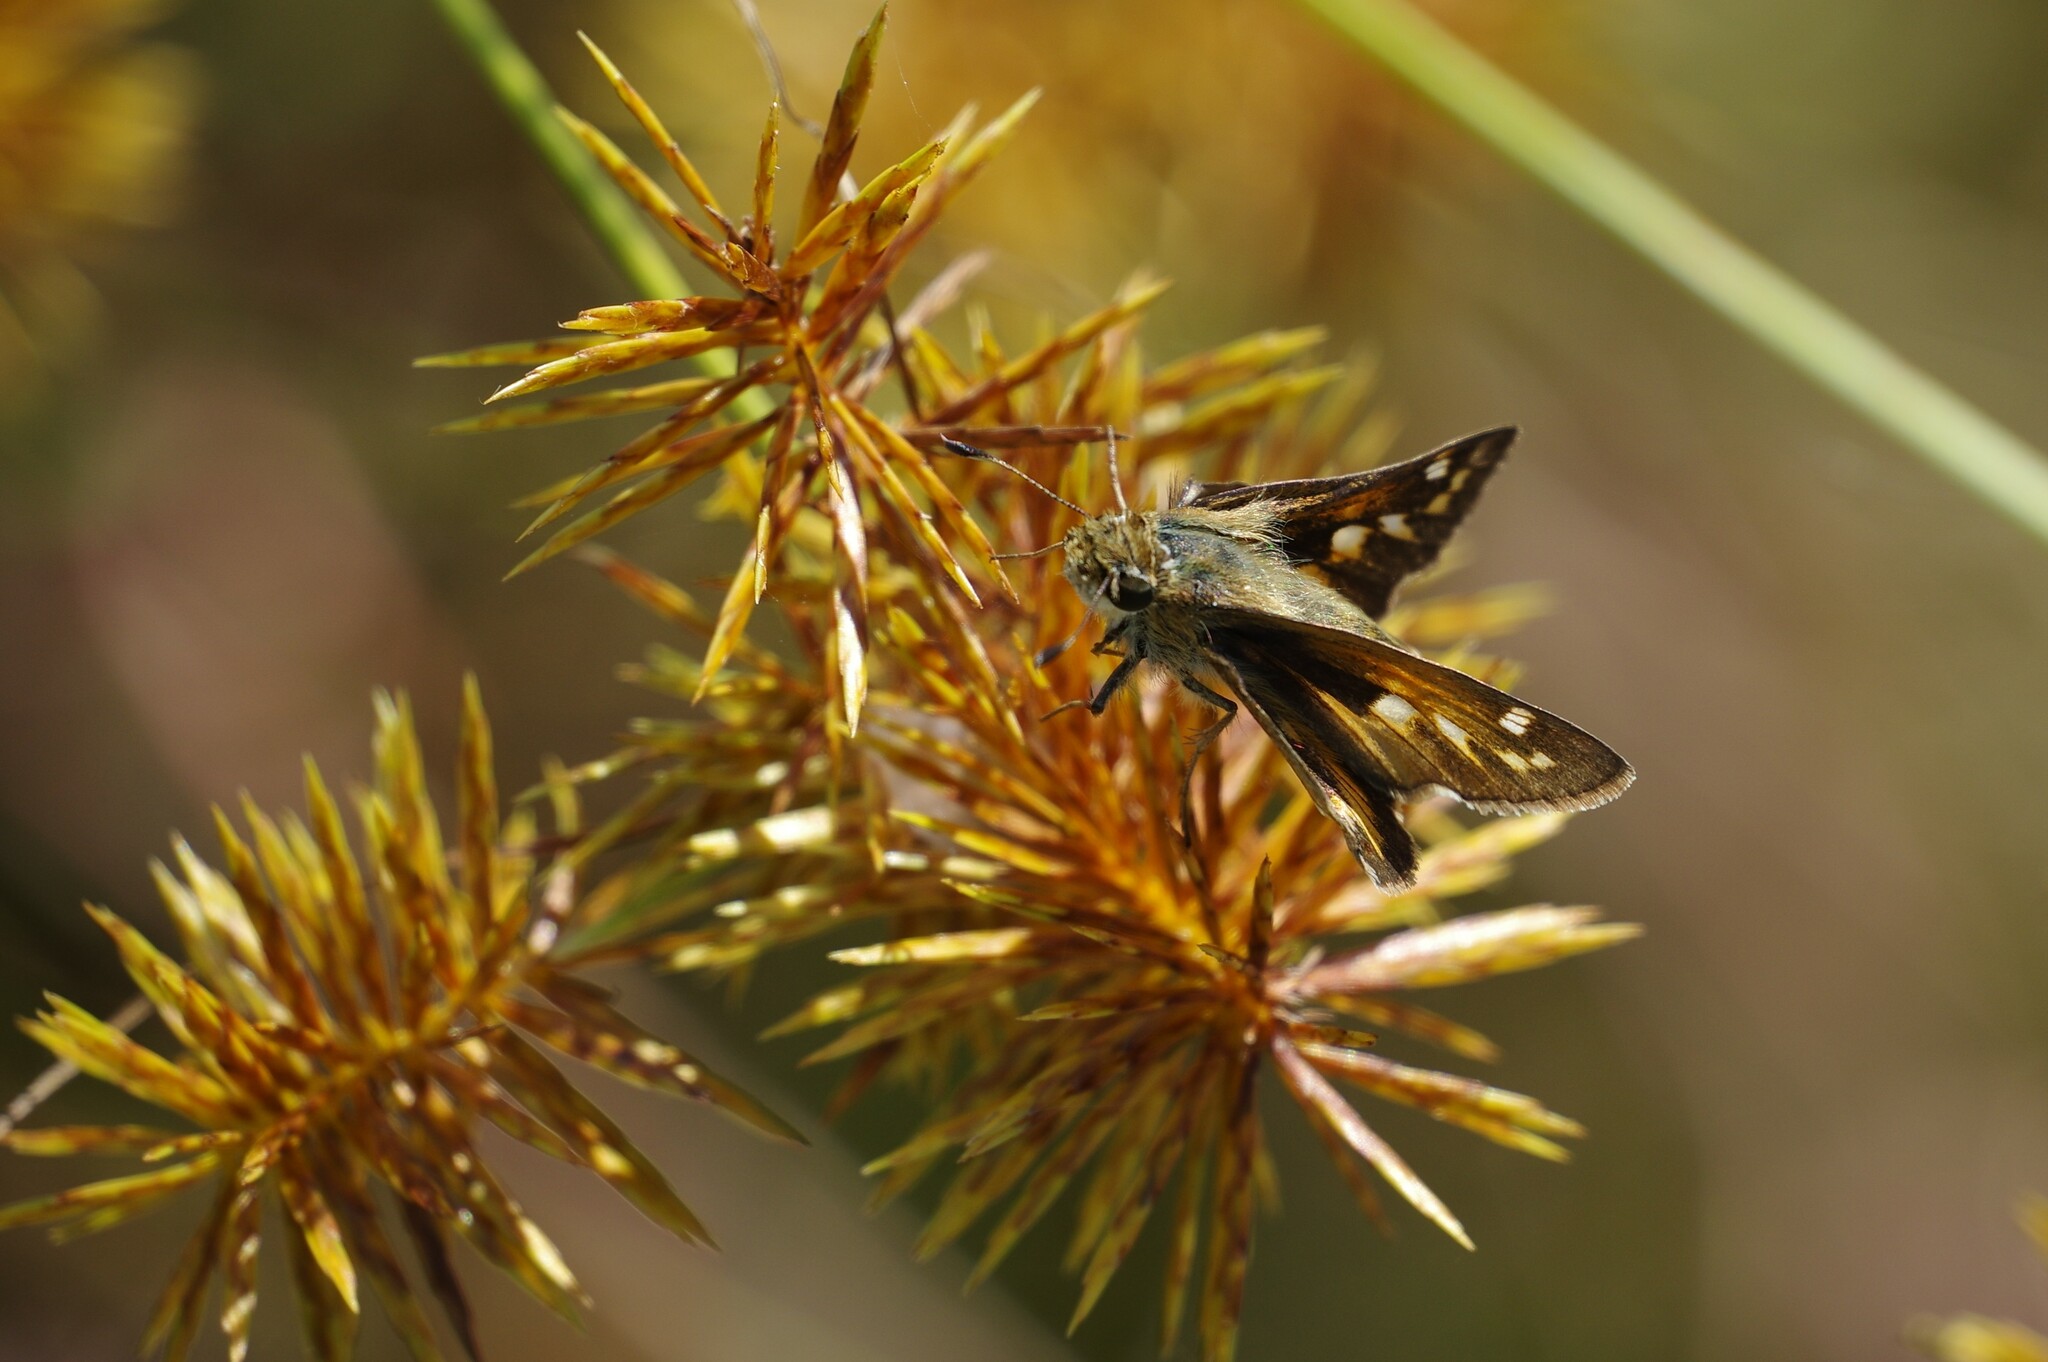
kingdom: Animalia
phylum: Arthropoda
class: Insecta
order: Lepidoptera
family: Hesperiidae
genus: Atalopedes
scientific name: Atalopedes
